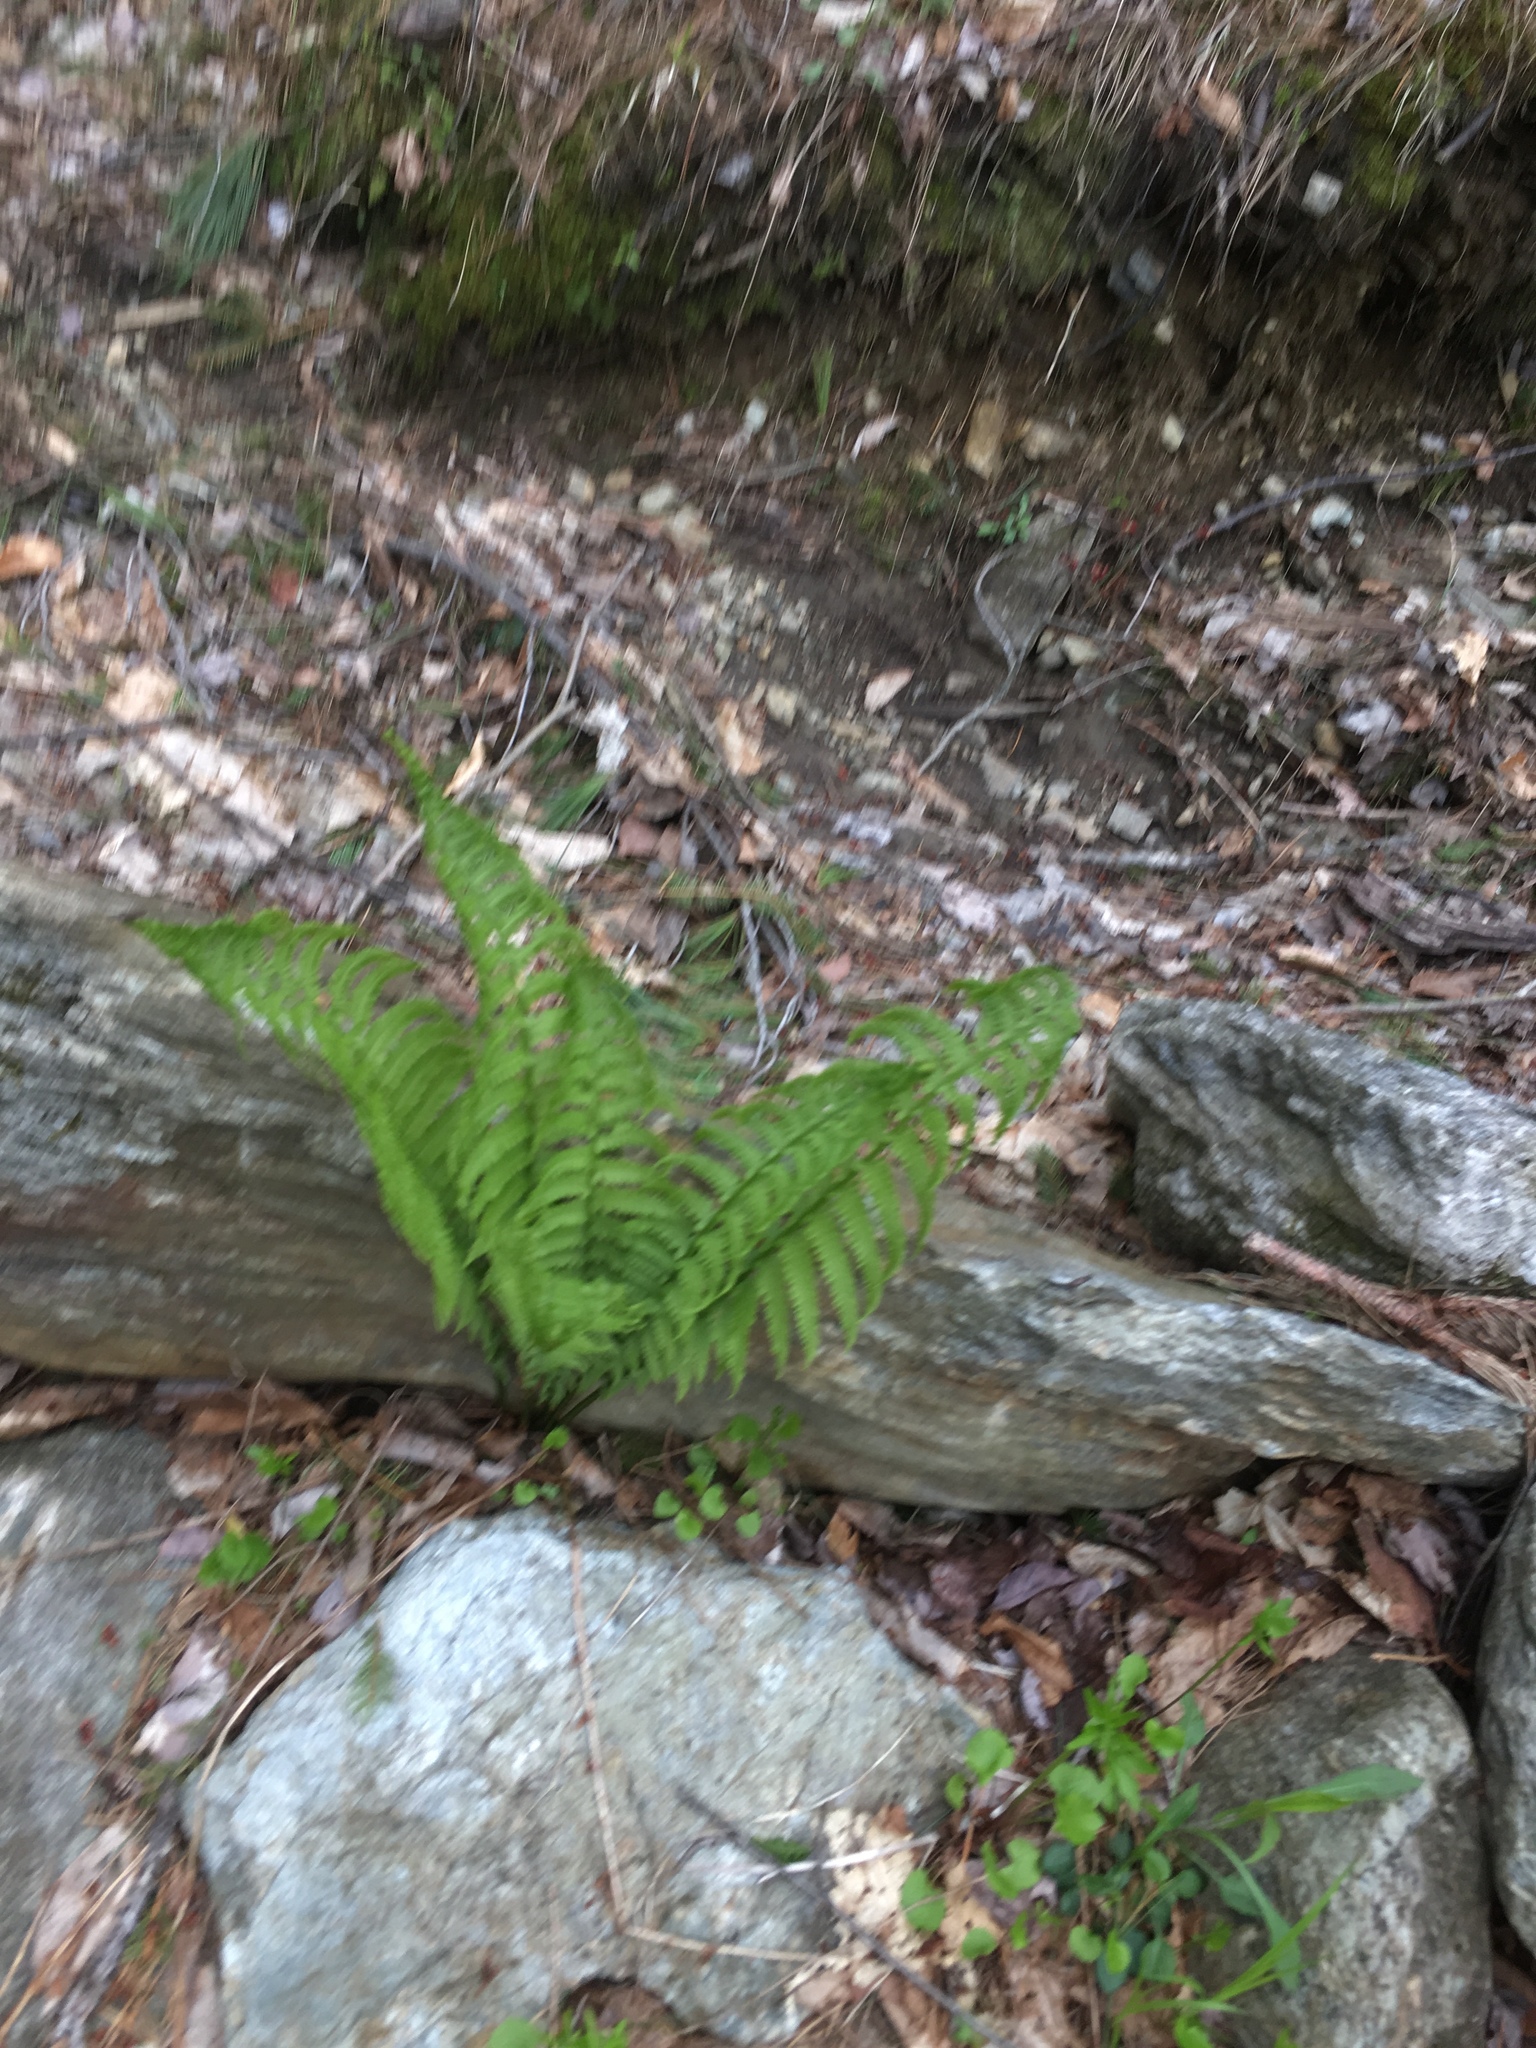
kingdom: Plantae
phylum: Tracheophyta
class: Polypodiopsida
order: Polypodiales
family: Onocleaceae
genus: Matteuccia
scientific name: Matteuccia struthiopteris
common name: Ostrich fern
